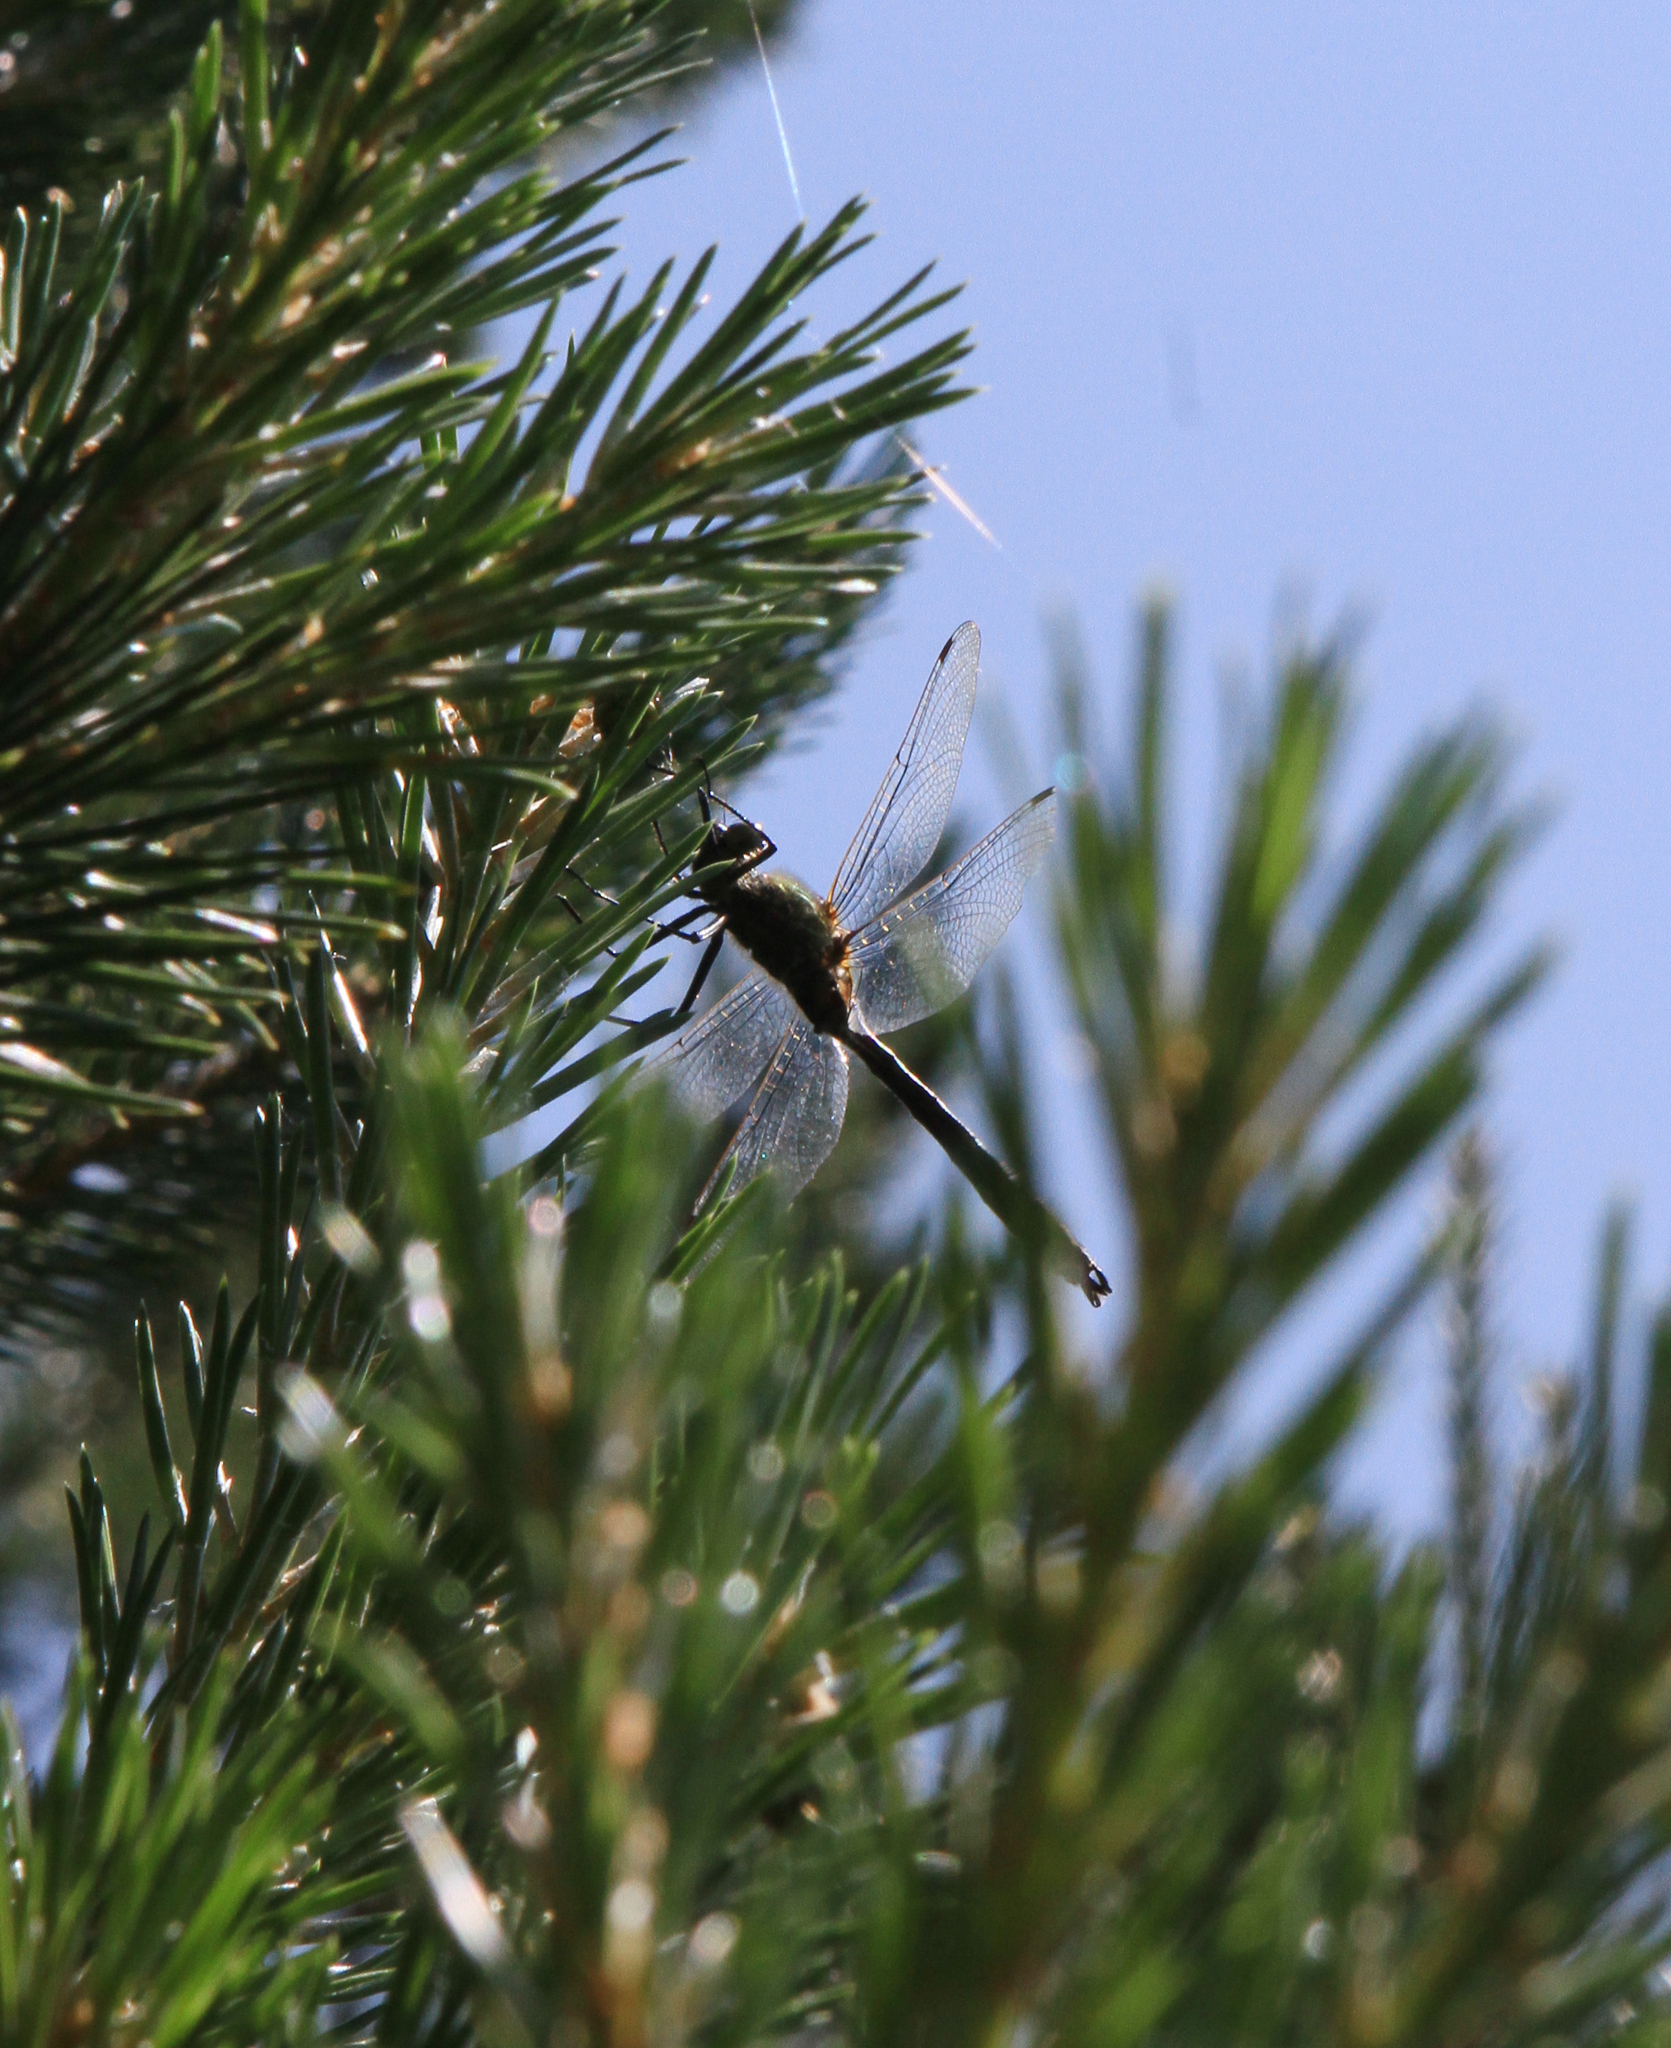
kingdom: Plantae
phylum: Tracheophyta
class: Pinopsida
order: Pinales
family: Pinaceae
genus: Pinus
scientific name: Pinus sylvestris
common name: Scots pine
